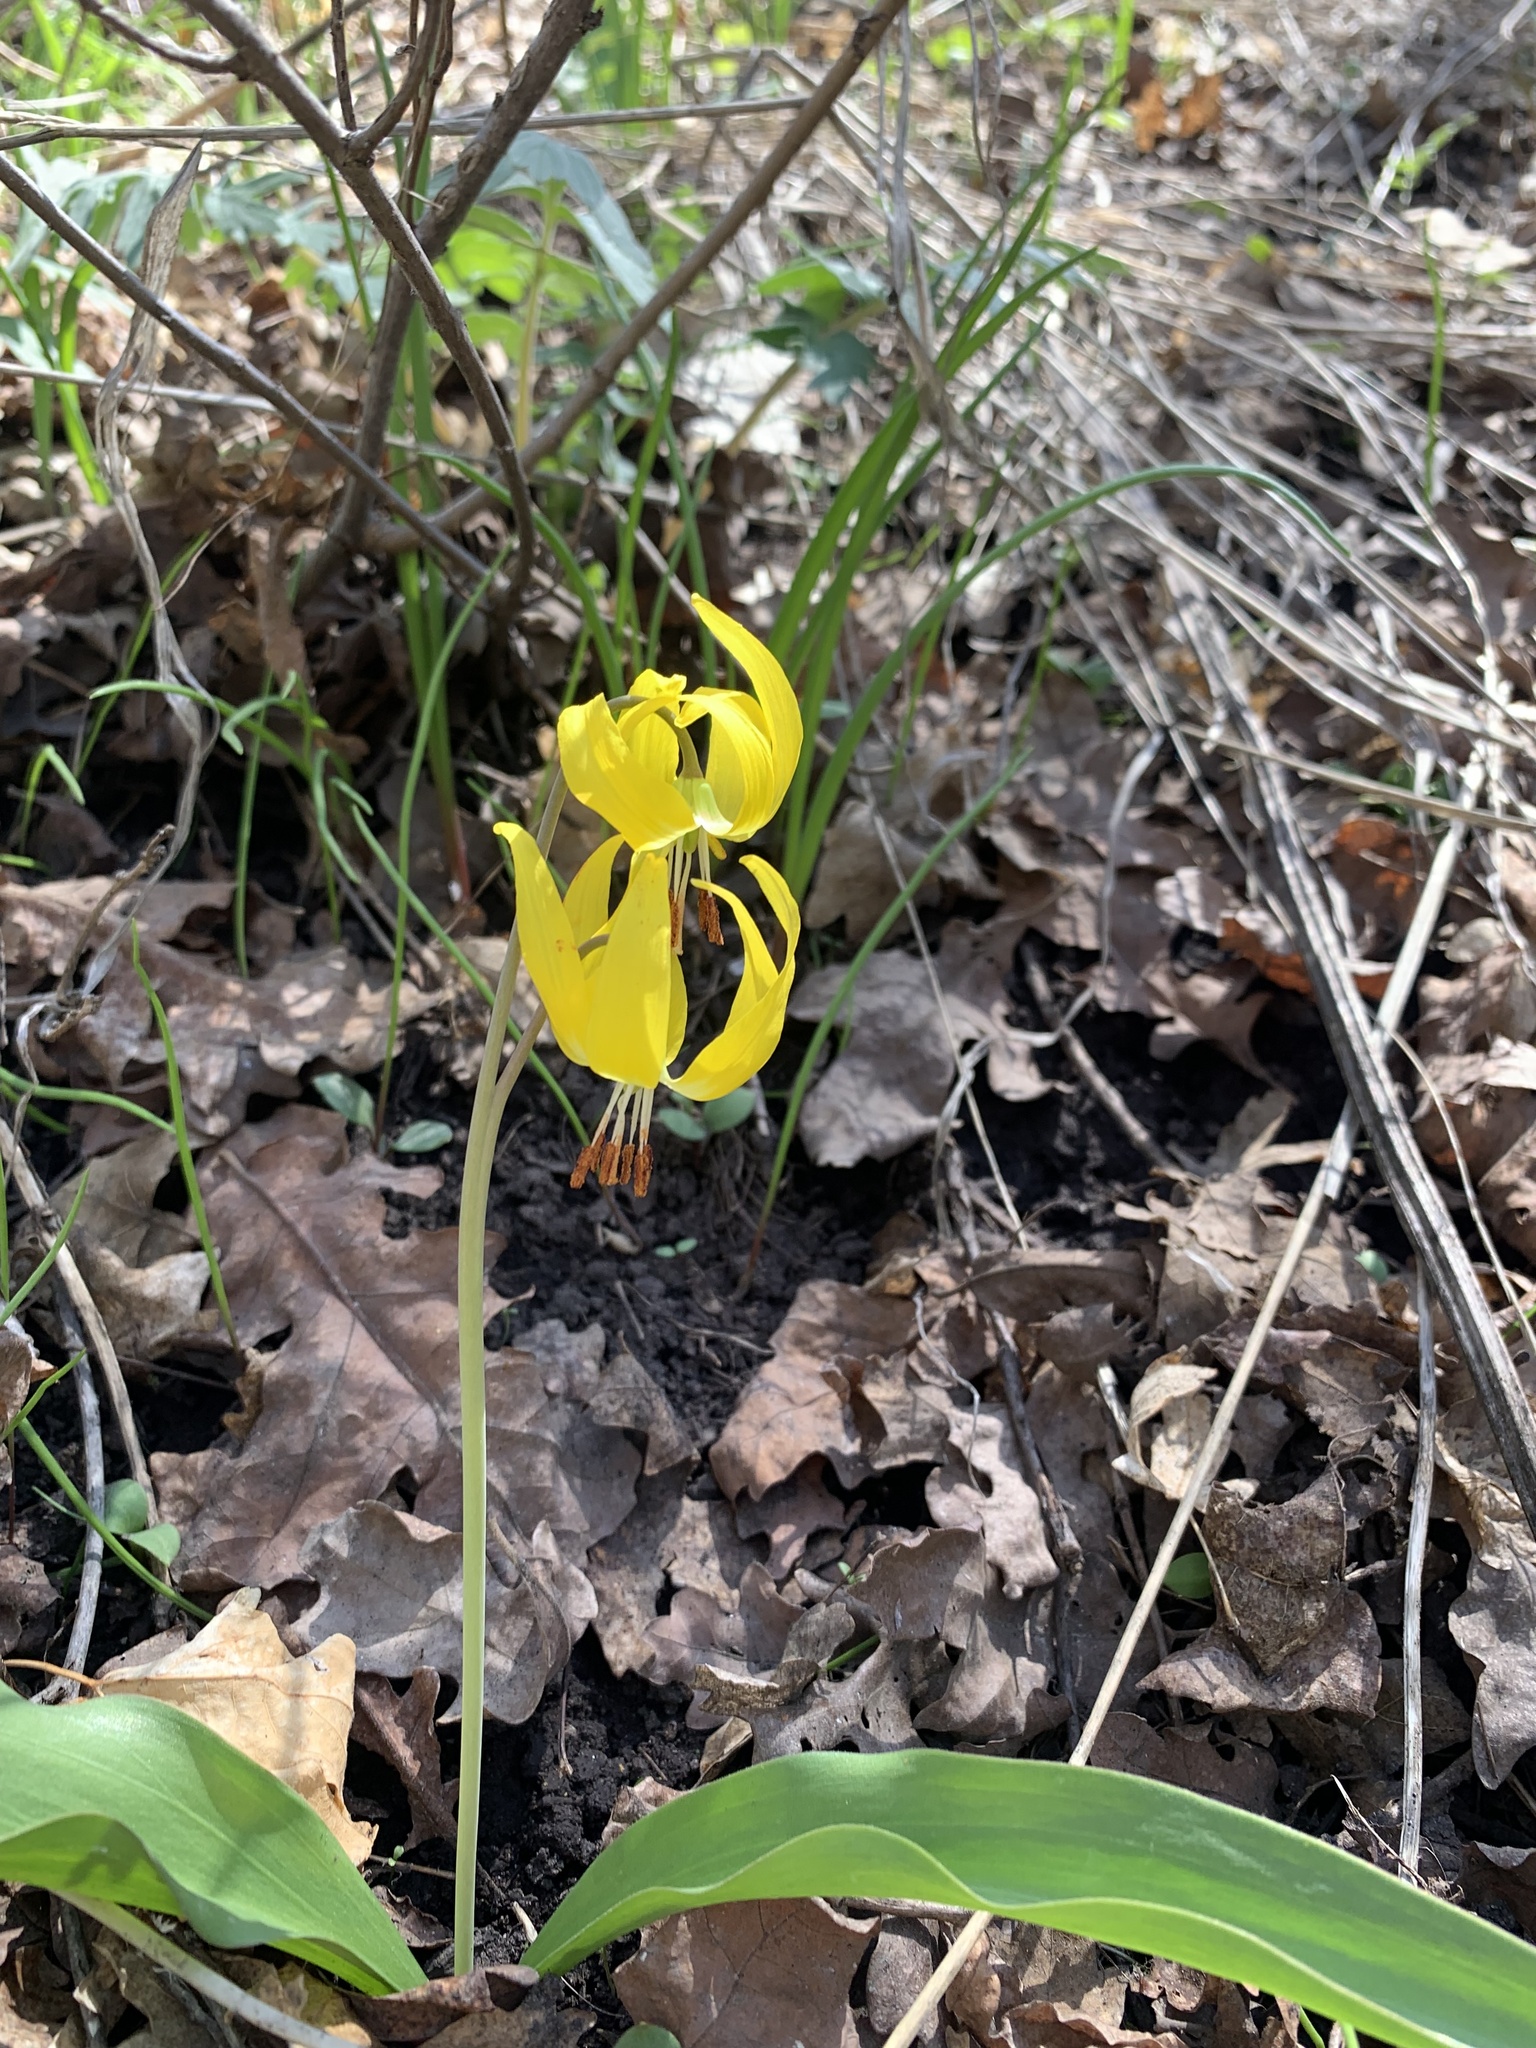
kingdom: Plantae
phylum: Tracheophyta
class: Liliopsida
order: Liliales
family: Liliaceae
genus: Erythronium
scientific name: Erythronium grandiflorum
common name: Avalanche-lily
